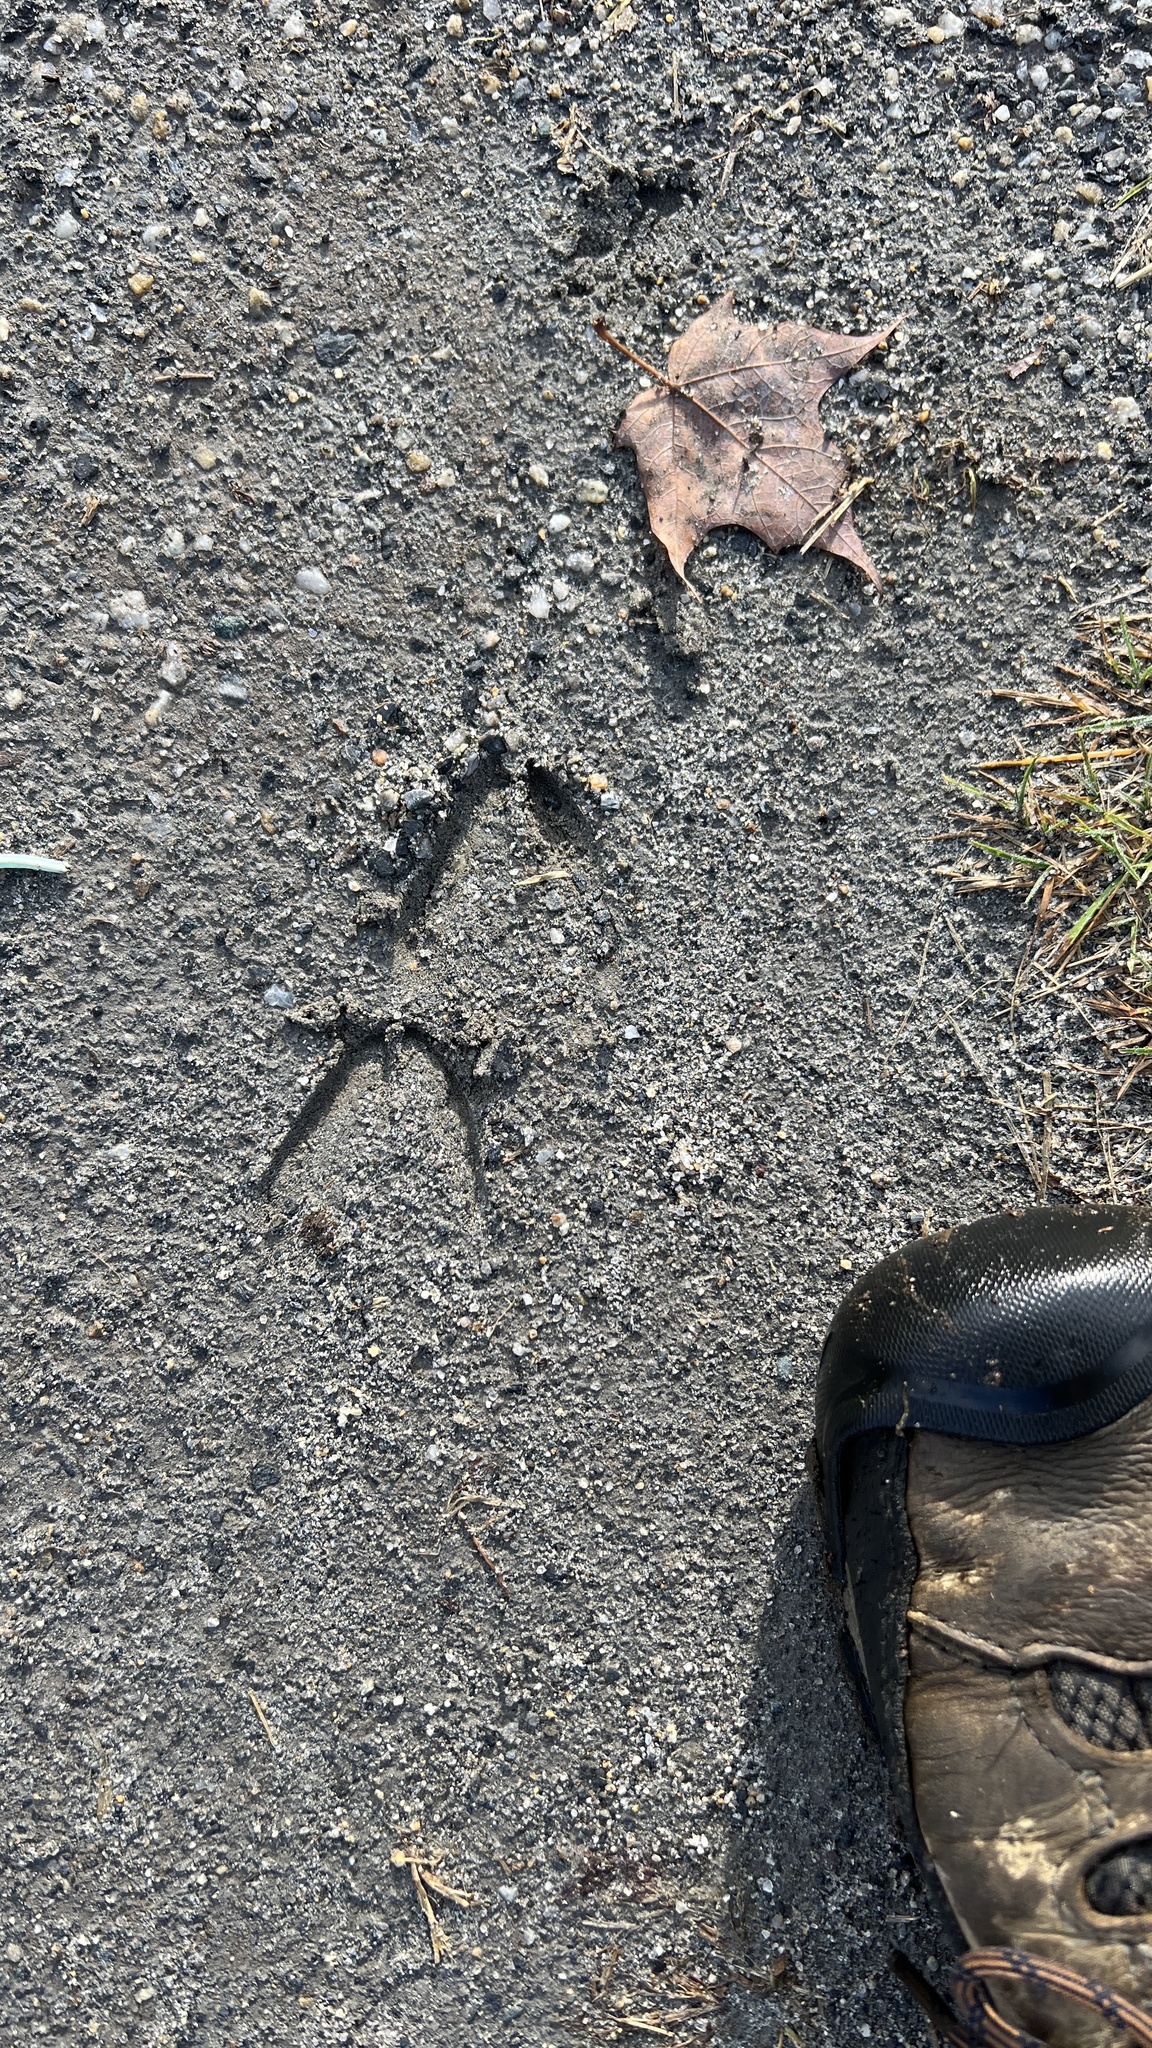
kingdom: Animalia
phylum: Chordata
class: Mammalia
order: Artiodactyla
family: Cervidae
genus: Odocoileus
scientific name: Odocoileus virginianus
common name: White-tailed deer
